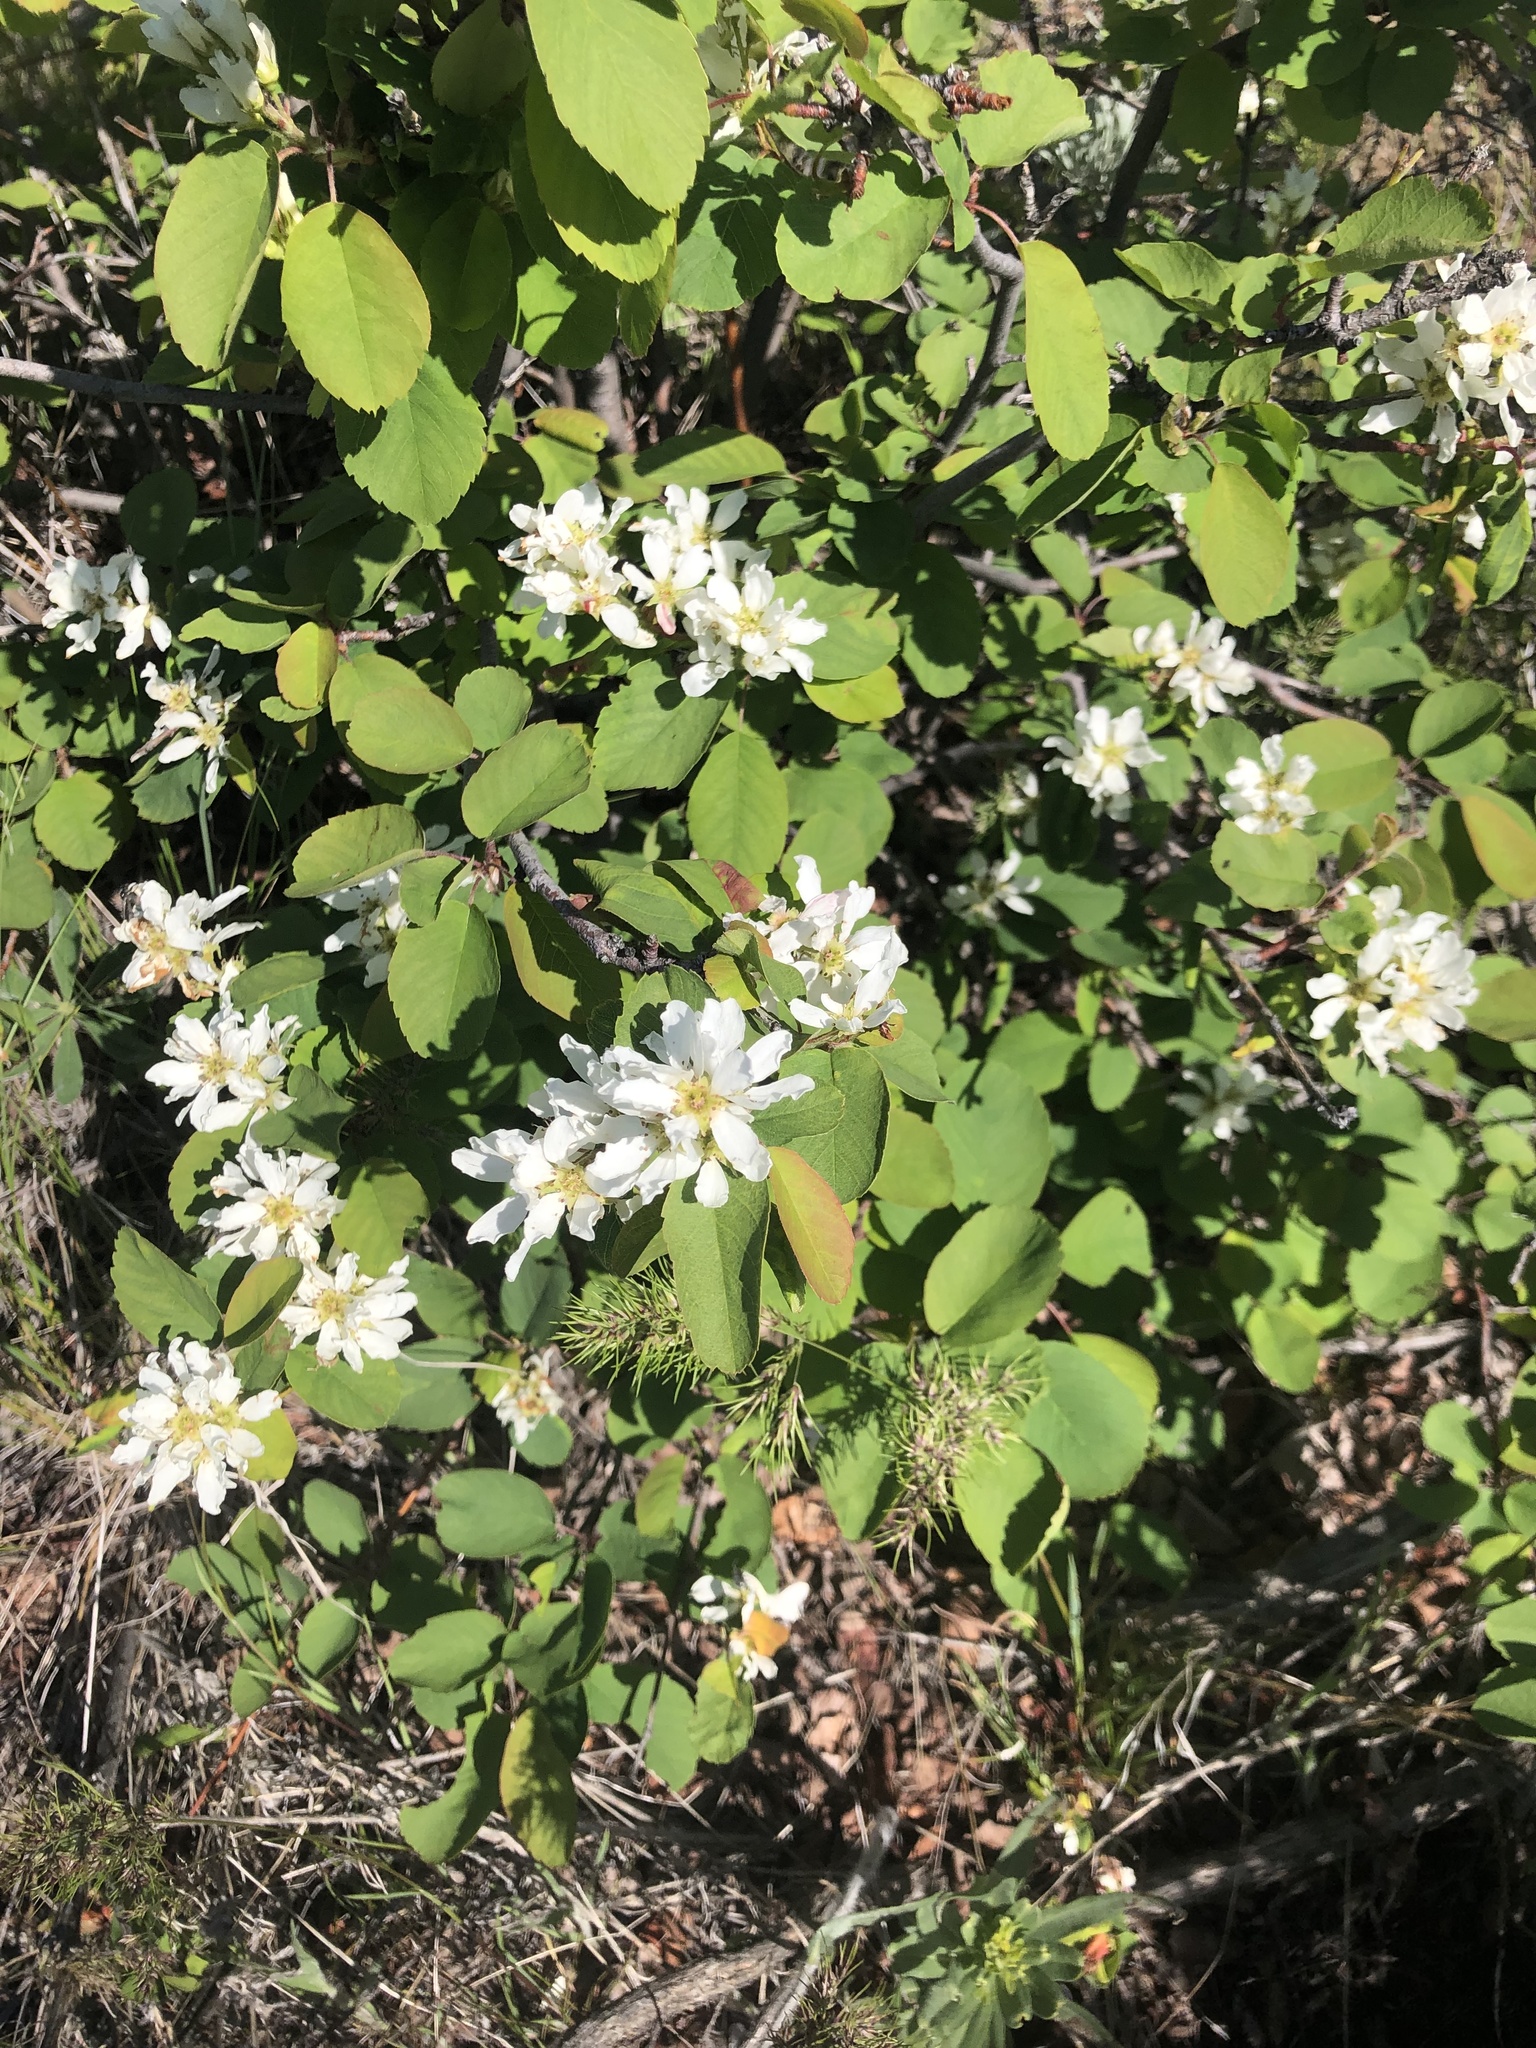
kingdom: Plantae
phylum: Tracheophyta
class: Magnoliopsida
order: Rosales
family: Rosaceae
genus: Amelanchier
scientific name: Amelanchier alnifolia
